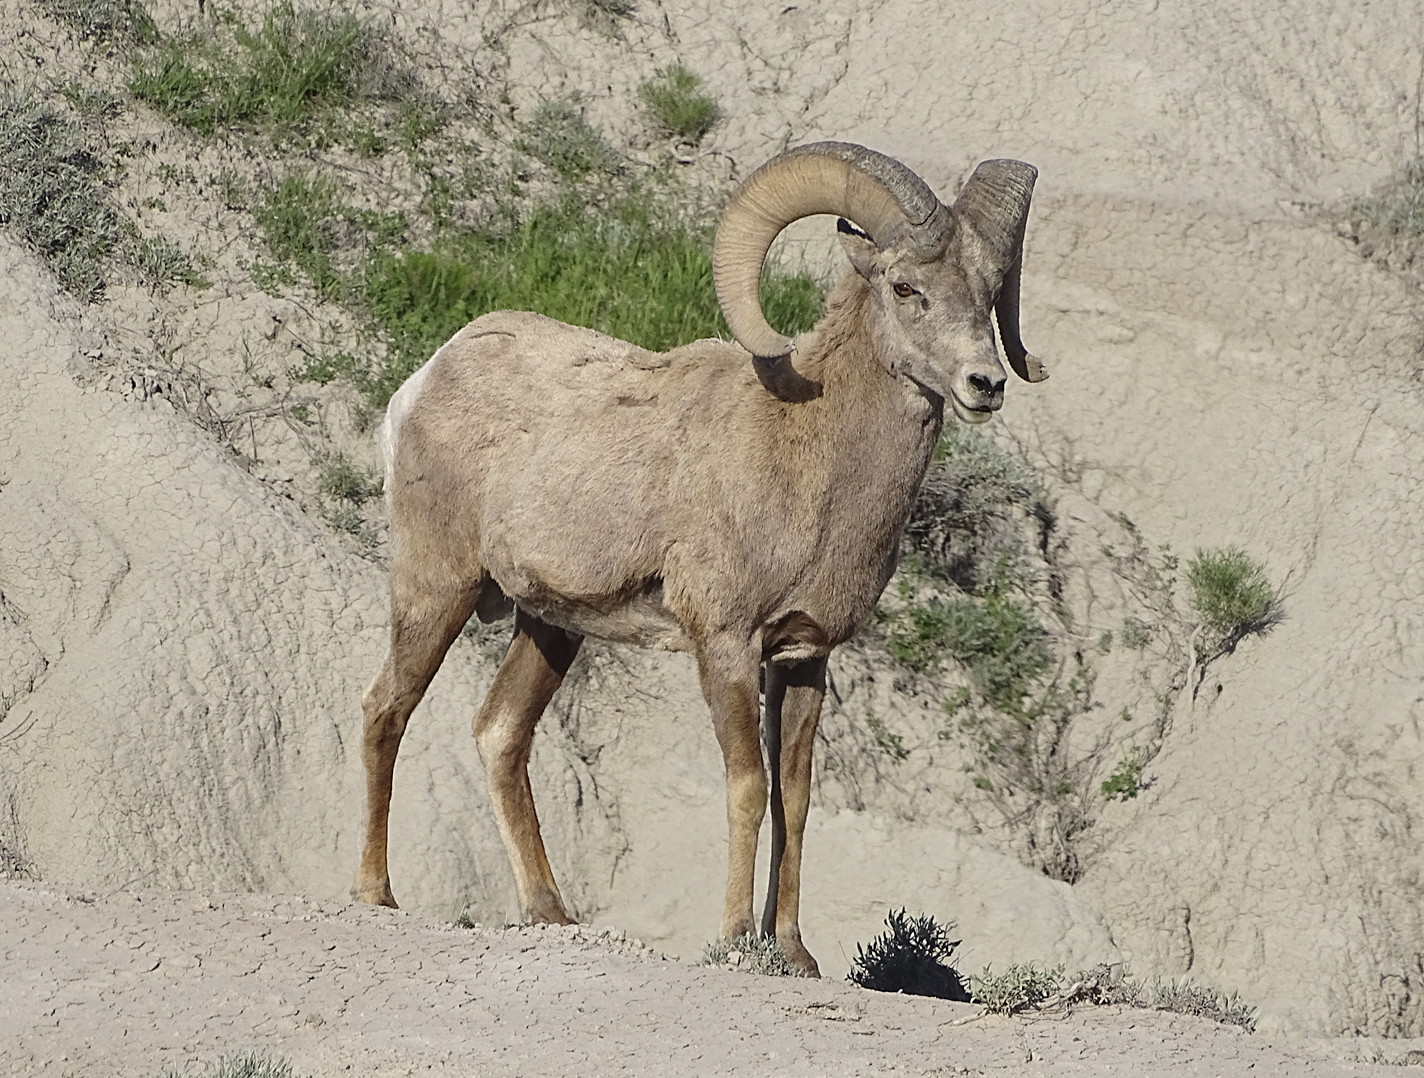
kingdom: Animalia
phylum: Chordata
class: Mammalia
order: Artiodactyla
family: Bovidae
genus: Ovis
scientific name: Ovis canadensis
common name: Bighorn sheep
